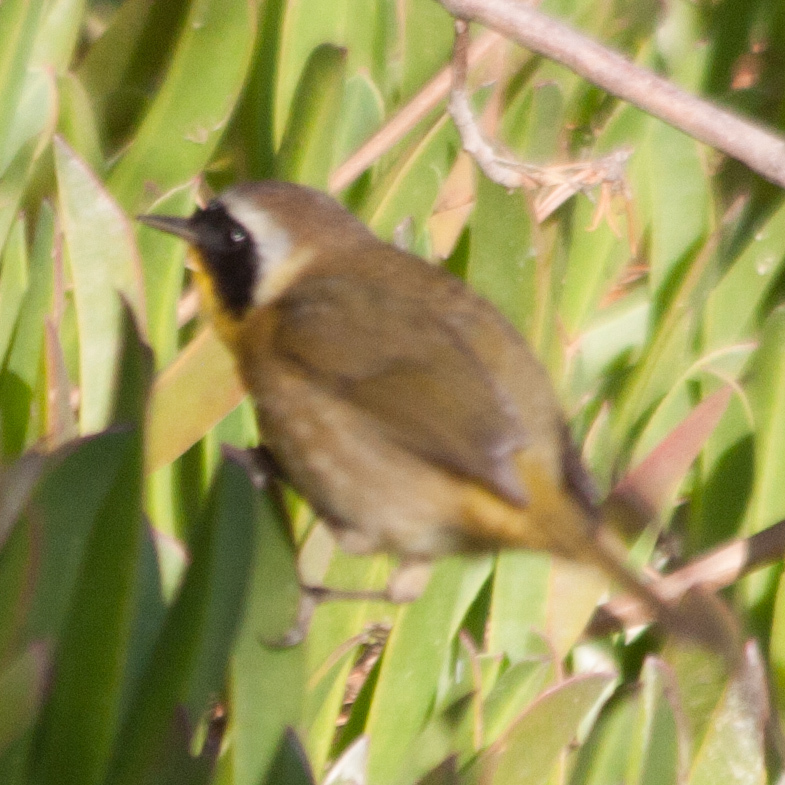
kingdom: Animalia
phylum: Chordata
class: Aves
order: Passeriformes
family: Parulidae
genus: Geothlypis
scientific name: Geothlypis trichas
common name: Common yellowthroat
